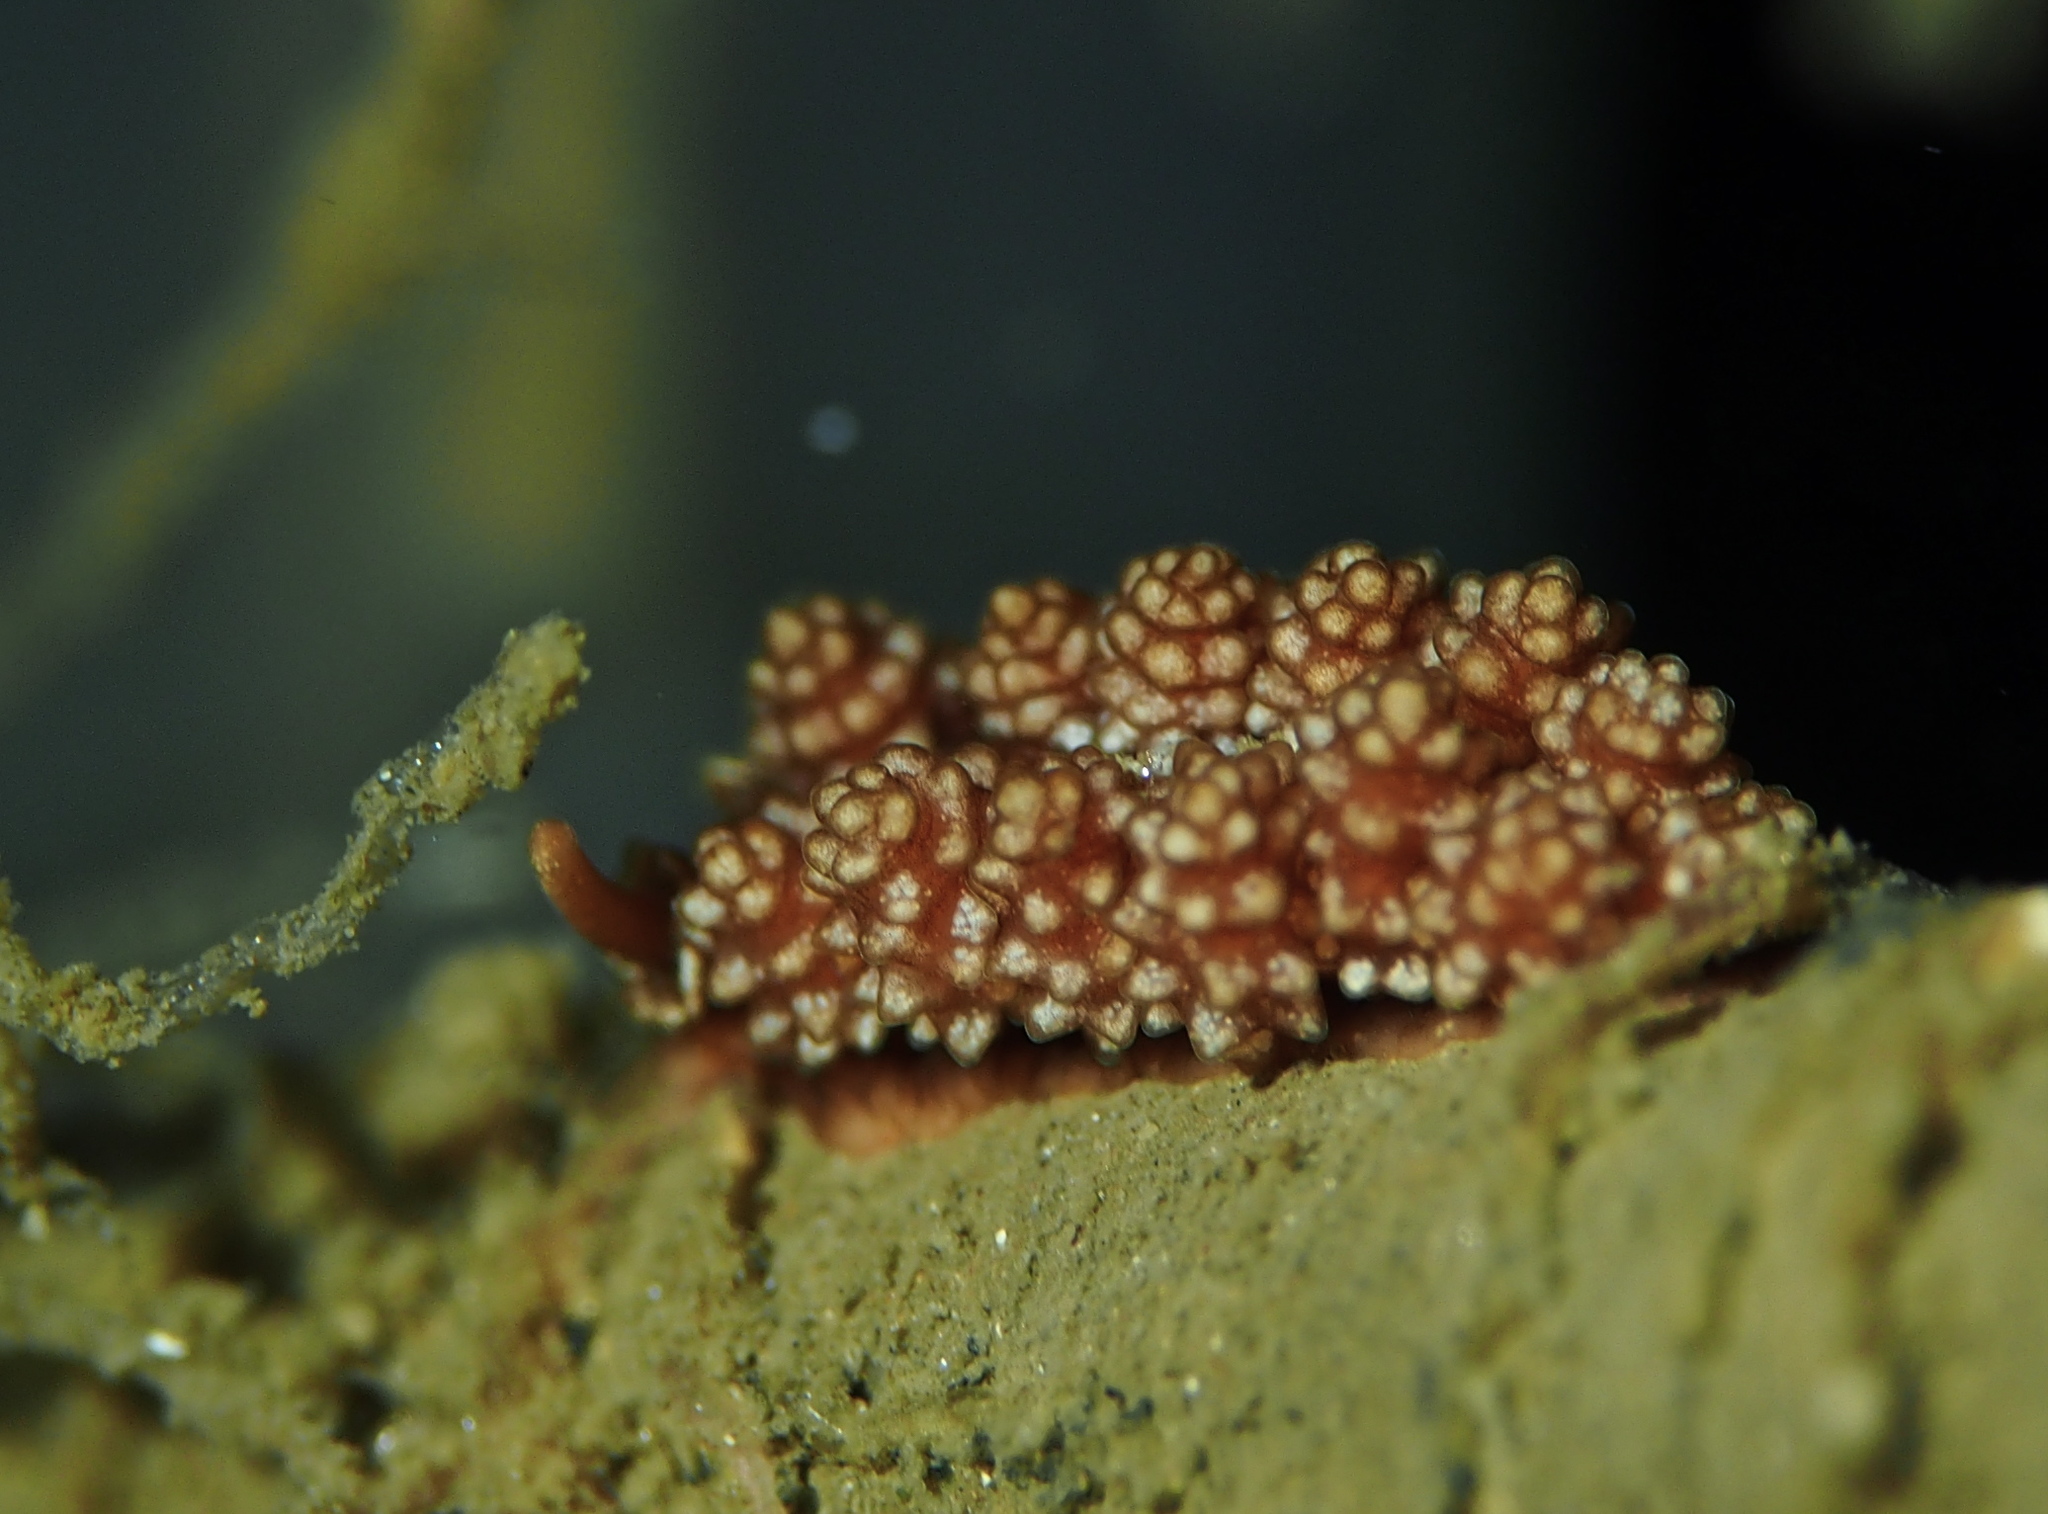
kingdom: Animalia
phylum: Mollusca
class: Gastropoda
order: Nudibranchia
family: Dotidae
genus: Doto
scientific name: Doto fragilis
